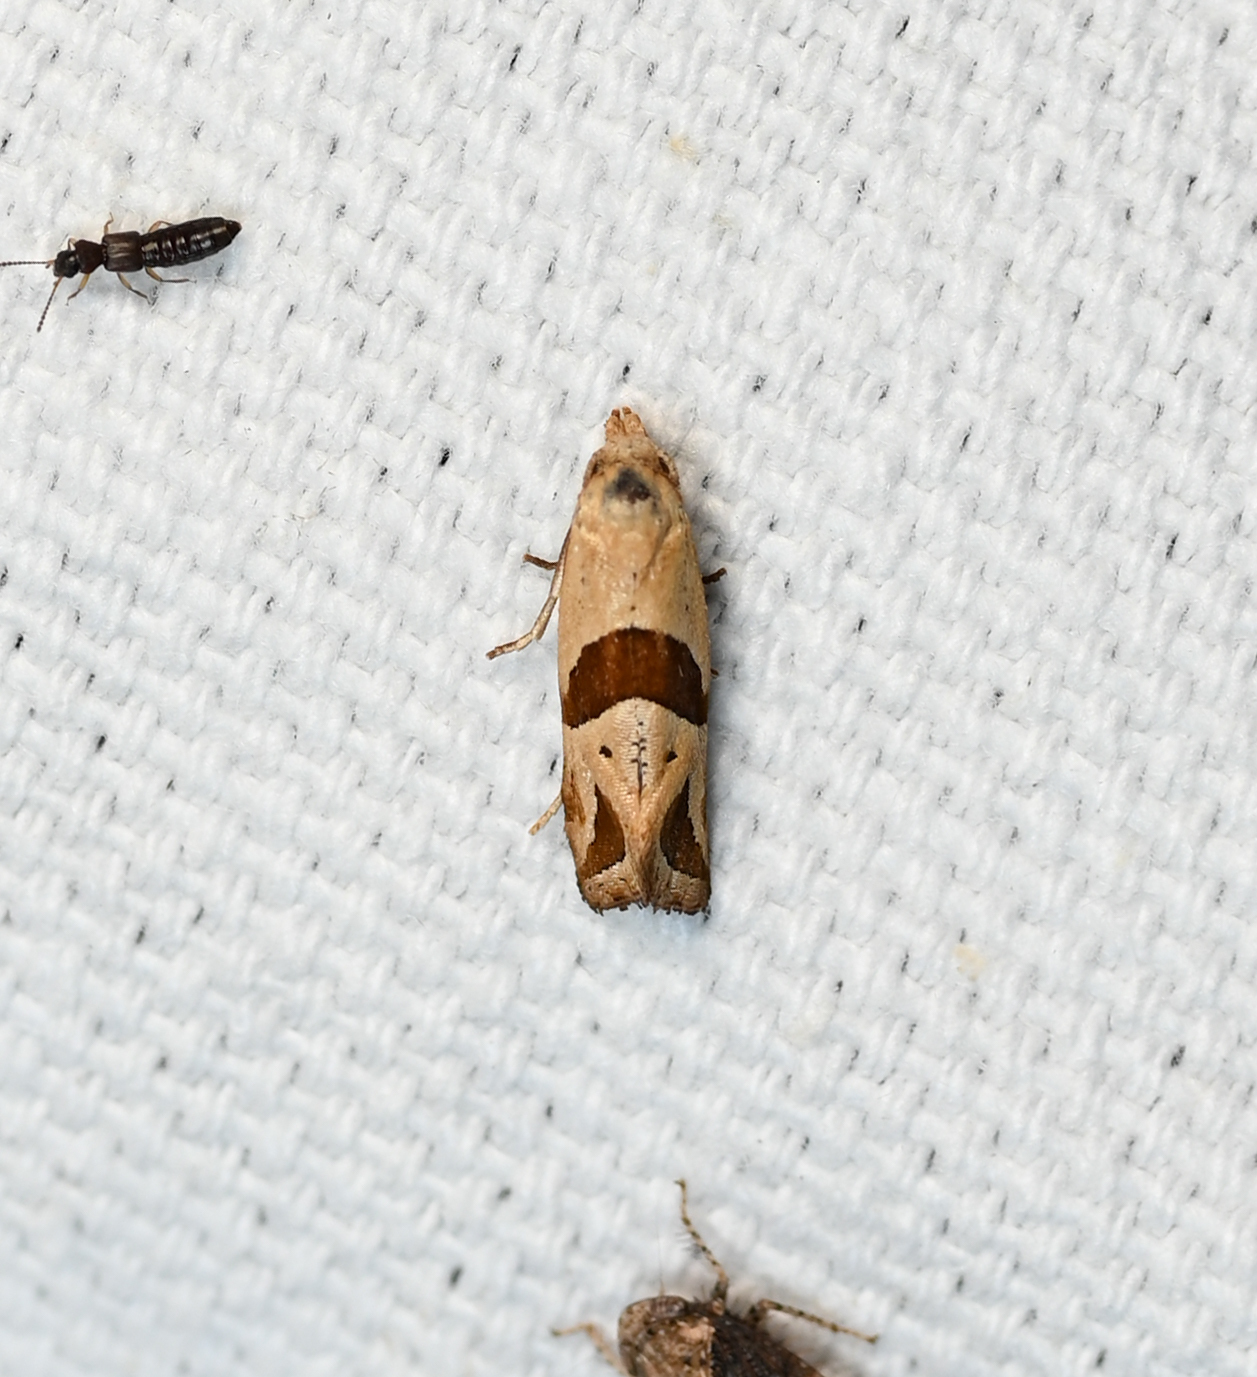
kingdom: Animalia
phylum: Arthropoda
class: Insecta
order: Lepidoptera
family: Tortricidae
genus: Eugnosta
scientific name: Eugnosta sartana
